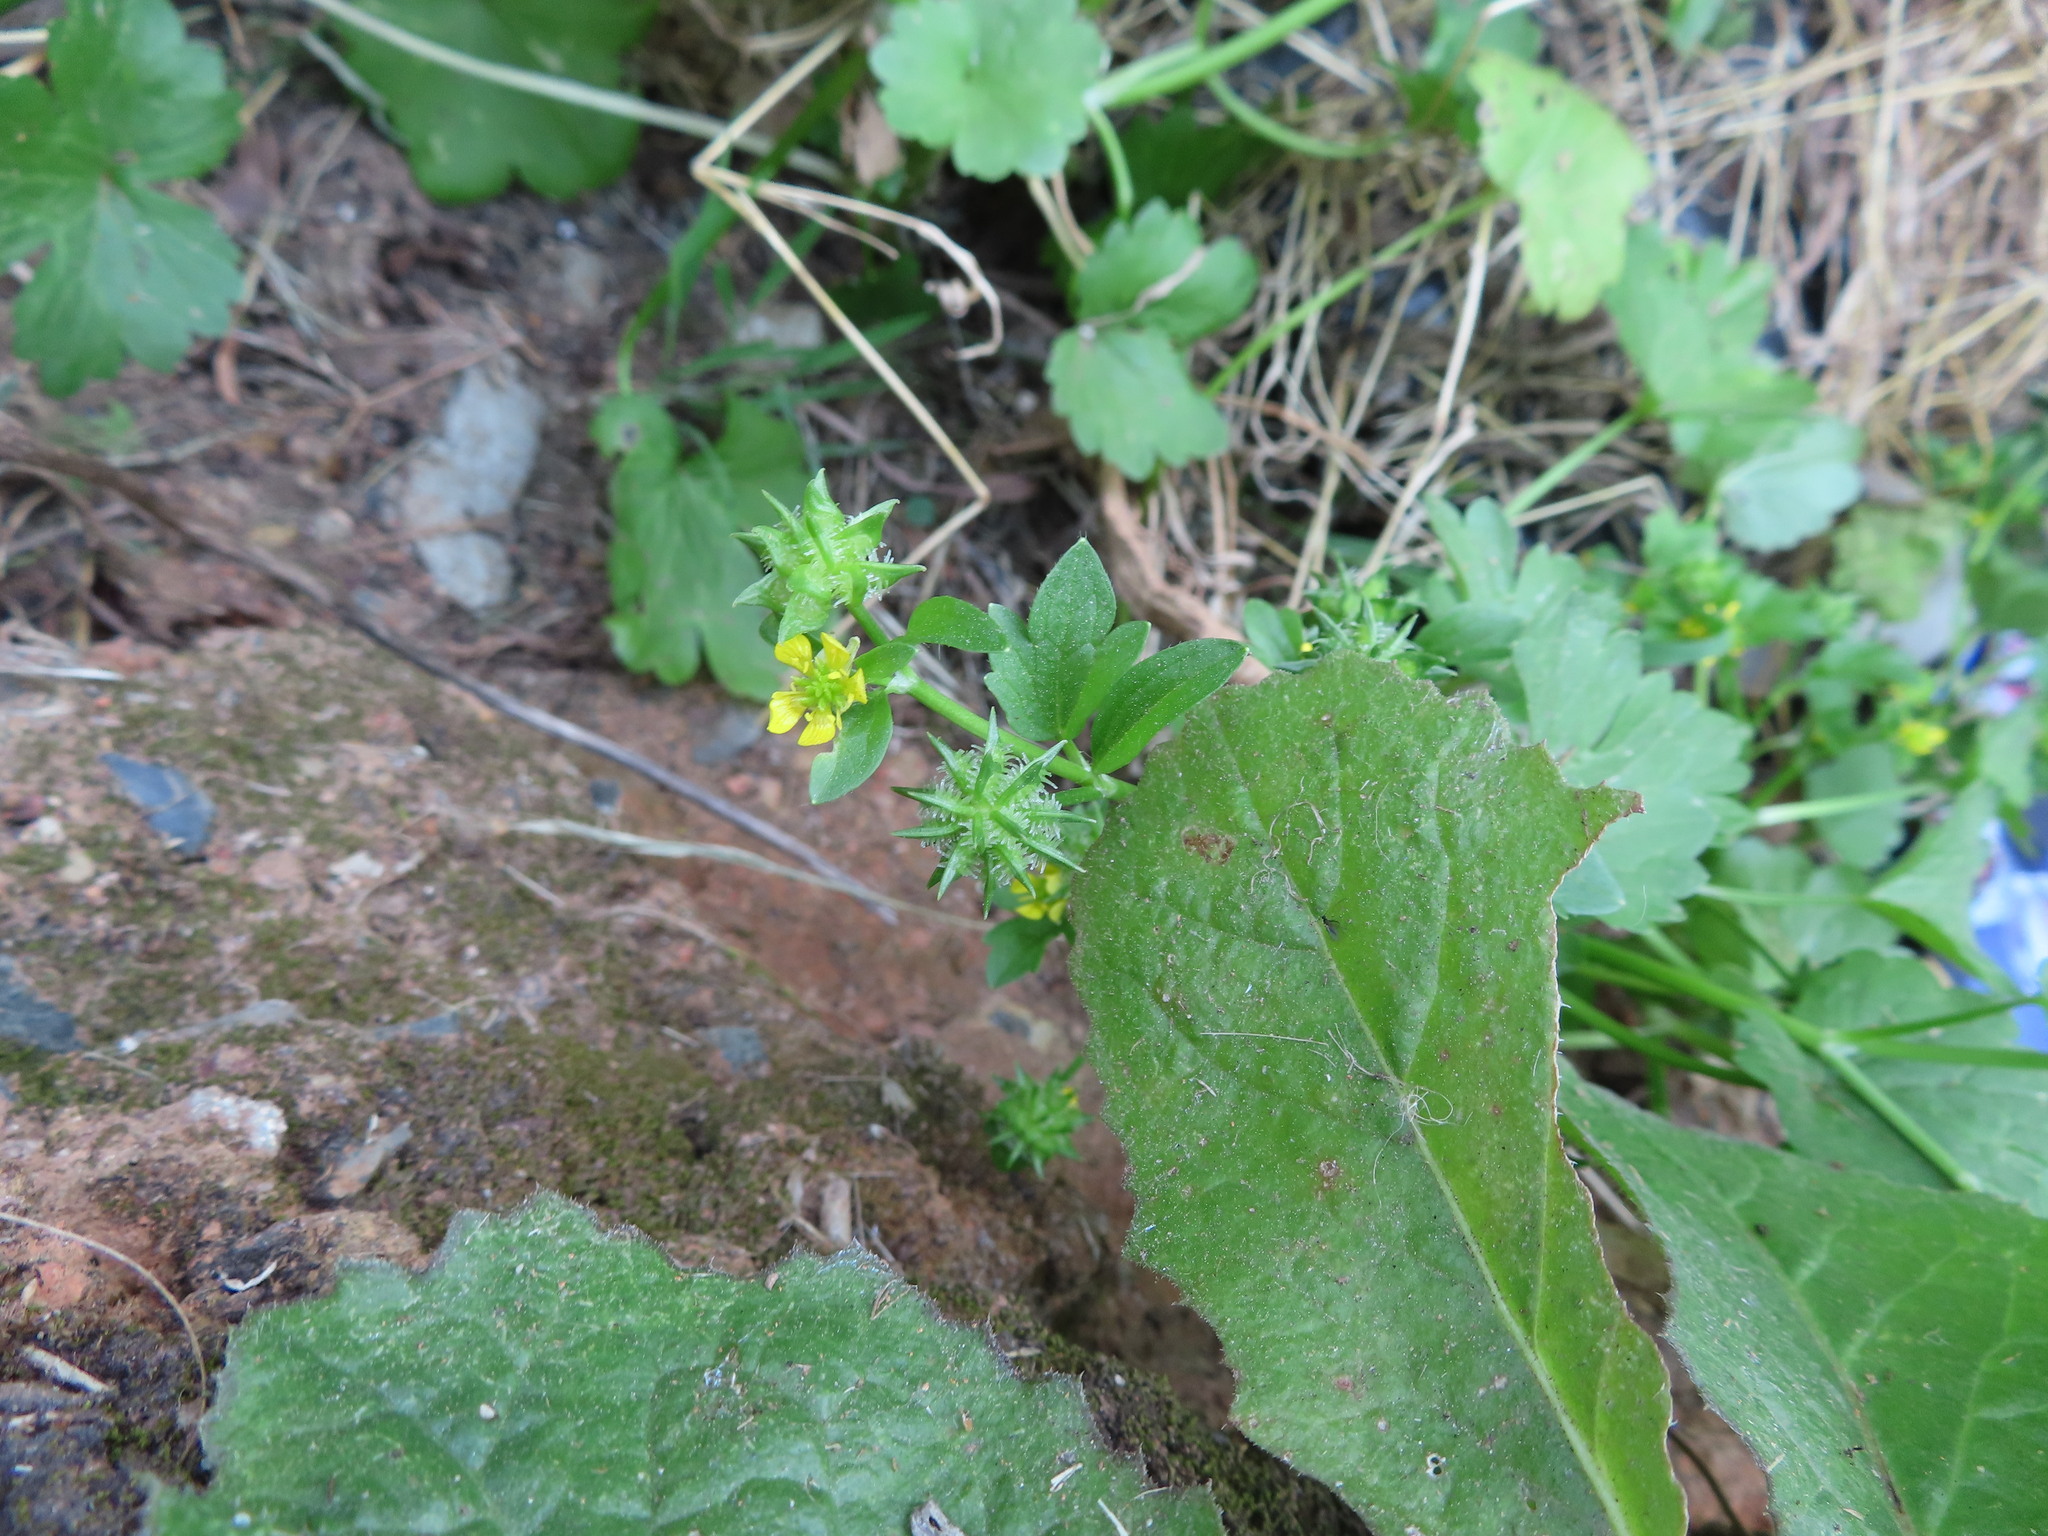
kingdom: Plantae
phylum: Tracheophyta
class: Magnoliopsida
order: Ranunculales
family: Ranunculaceae
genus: Ranunculus
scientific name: Ranunculus muricatus
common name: Rough-fruited buttercup
